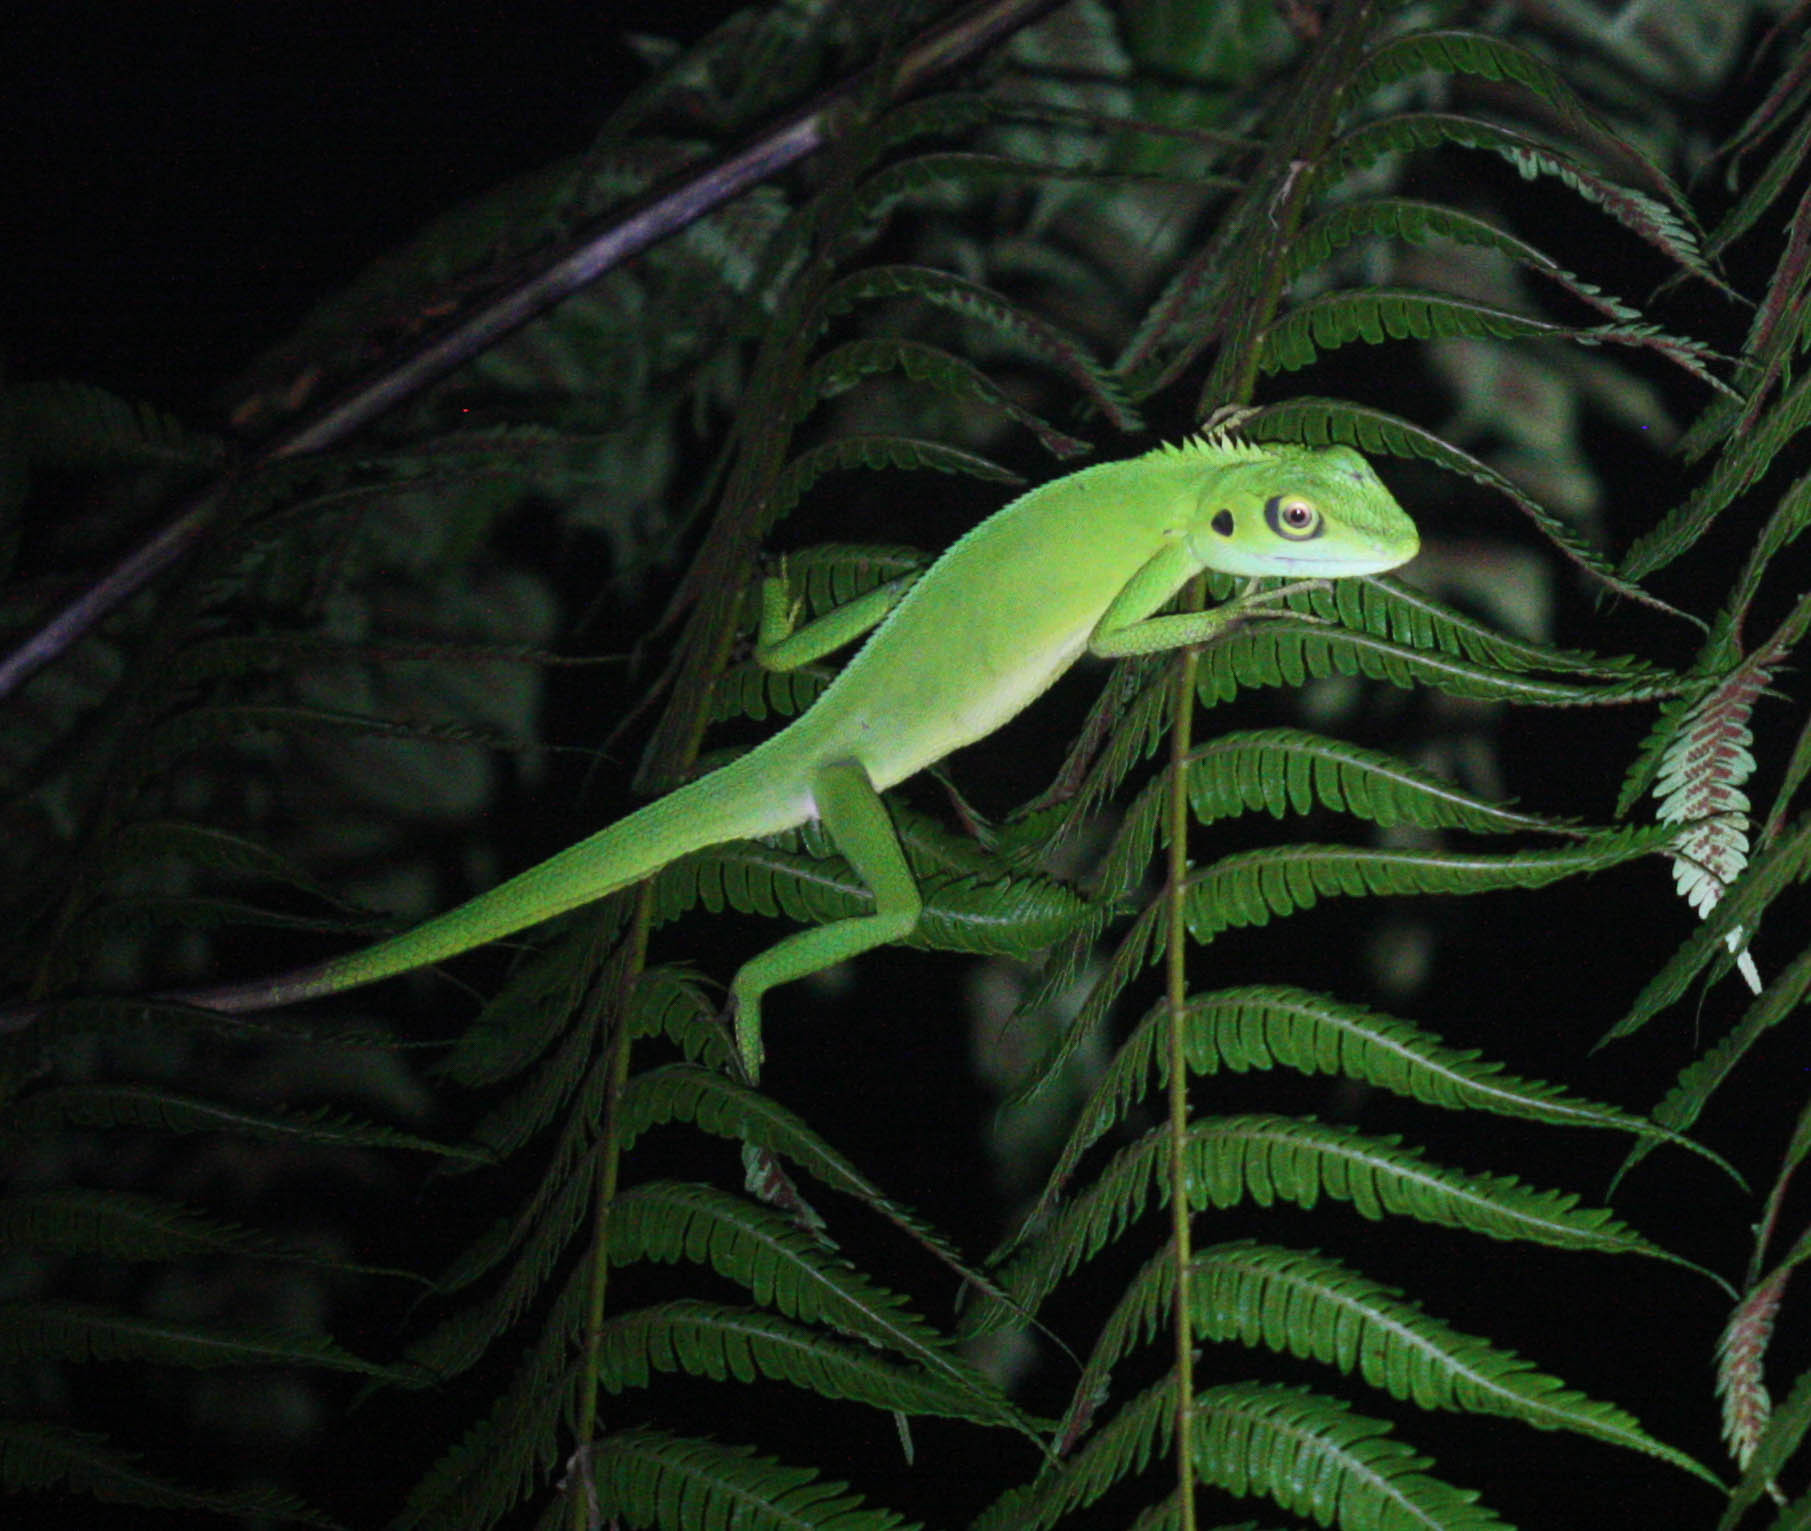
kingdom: Animalia
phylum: Chordata
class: Squamata
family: Agamidae
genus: Bronchocela
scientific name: Bronchocela cristatella
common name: Green crested lizard
